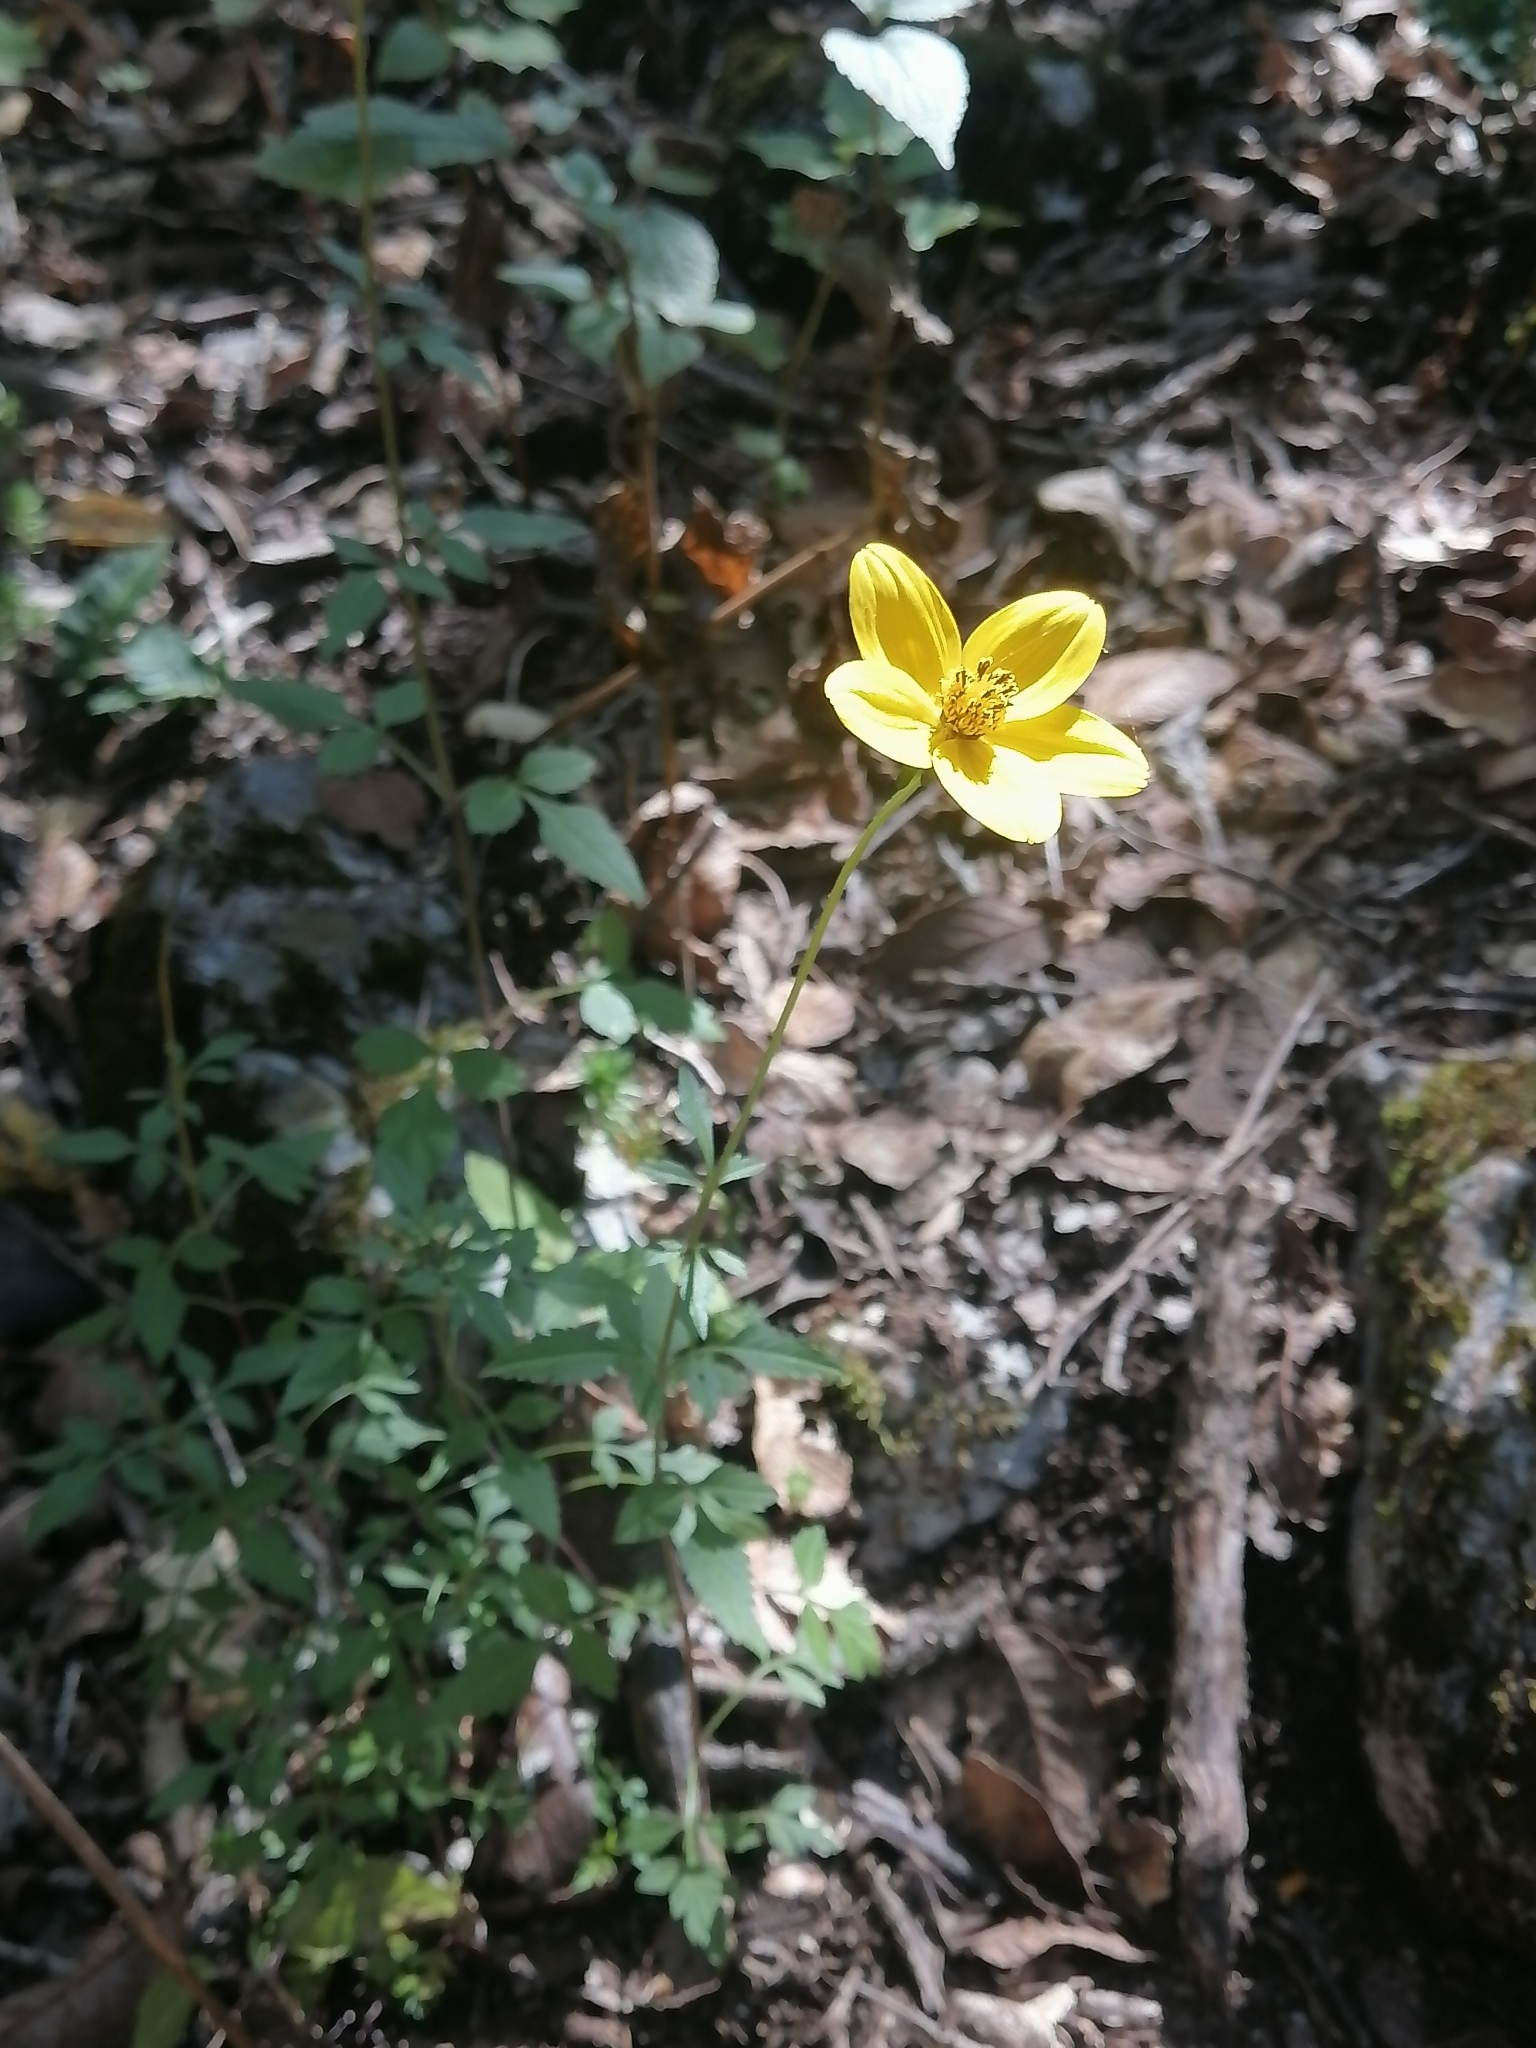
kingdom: Plantae
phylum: Tracheophyta
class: Magnoliopsida
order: Asterales
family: Asteraceae
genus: Bidens
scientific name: Bidens triplinervia
